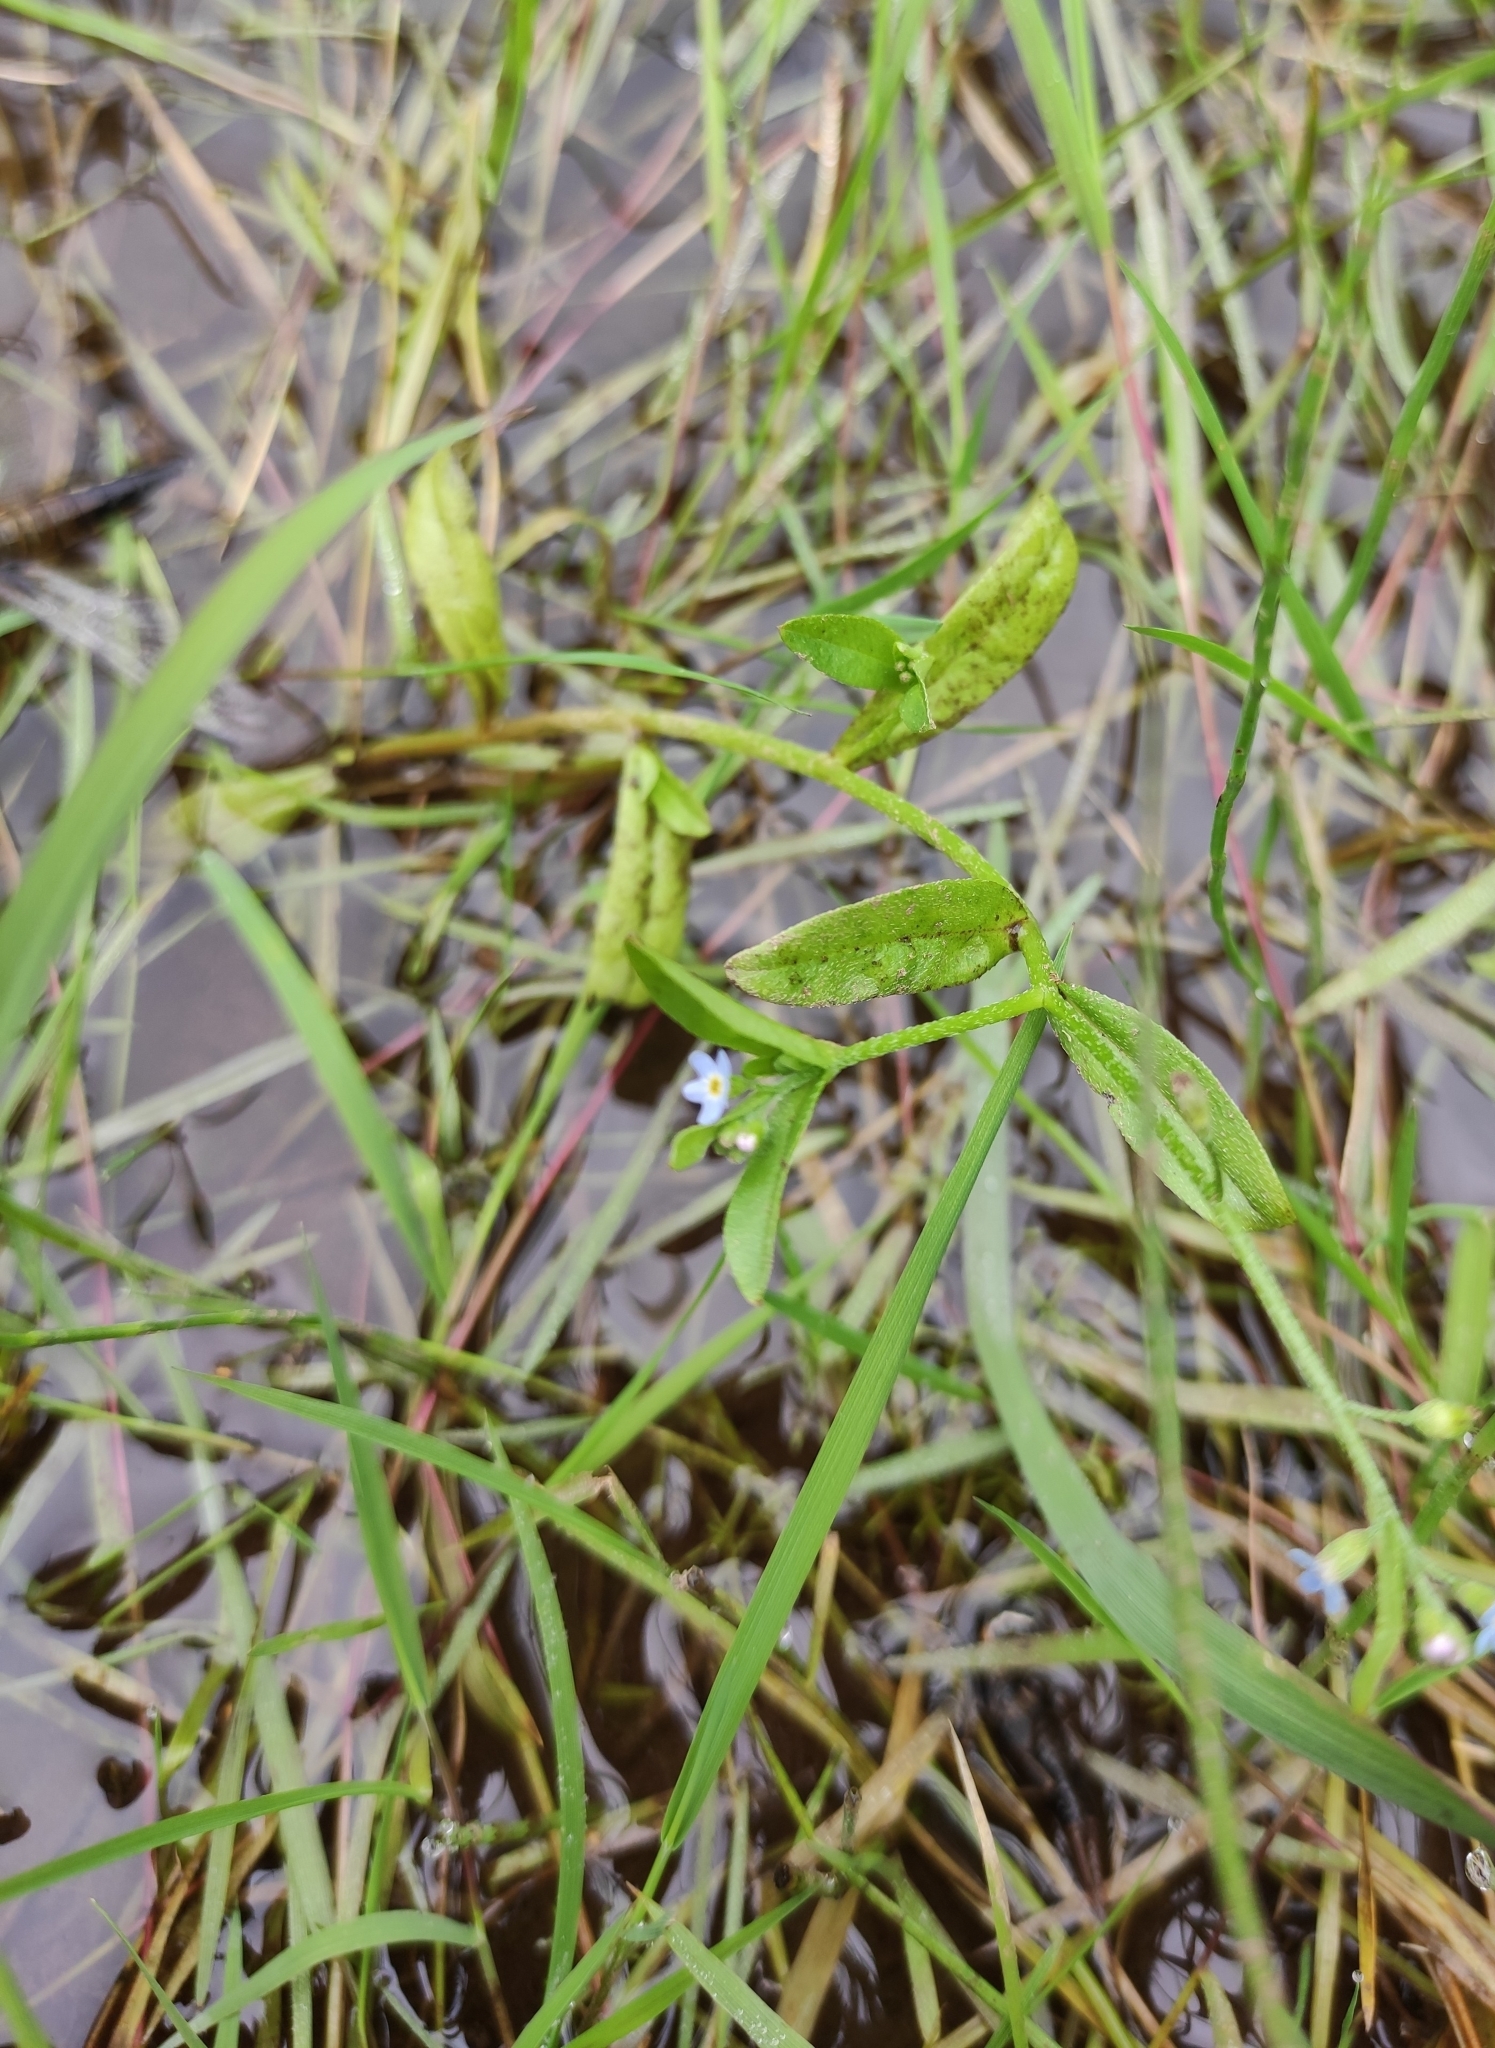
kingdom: Plantae
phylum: Tracheophyta
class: Magnoliopsida
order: Boraginales
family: Boraginaceae
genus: Myosotis
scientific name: Myosotis scorpioides
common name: Water forget-me-not
